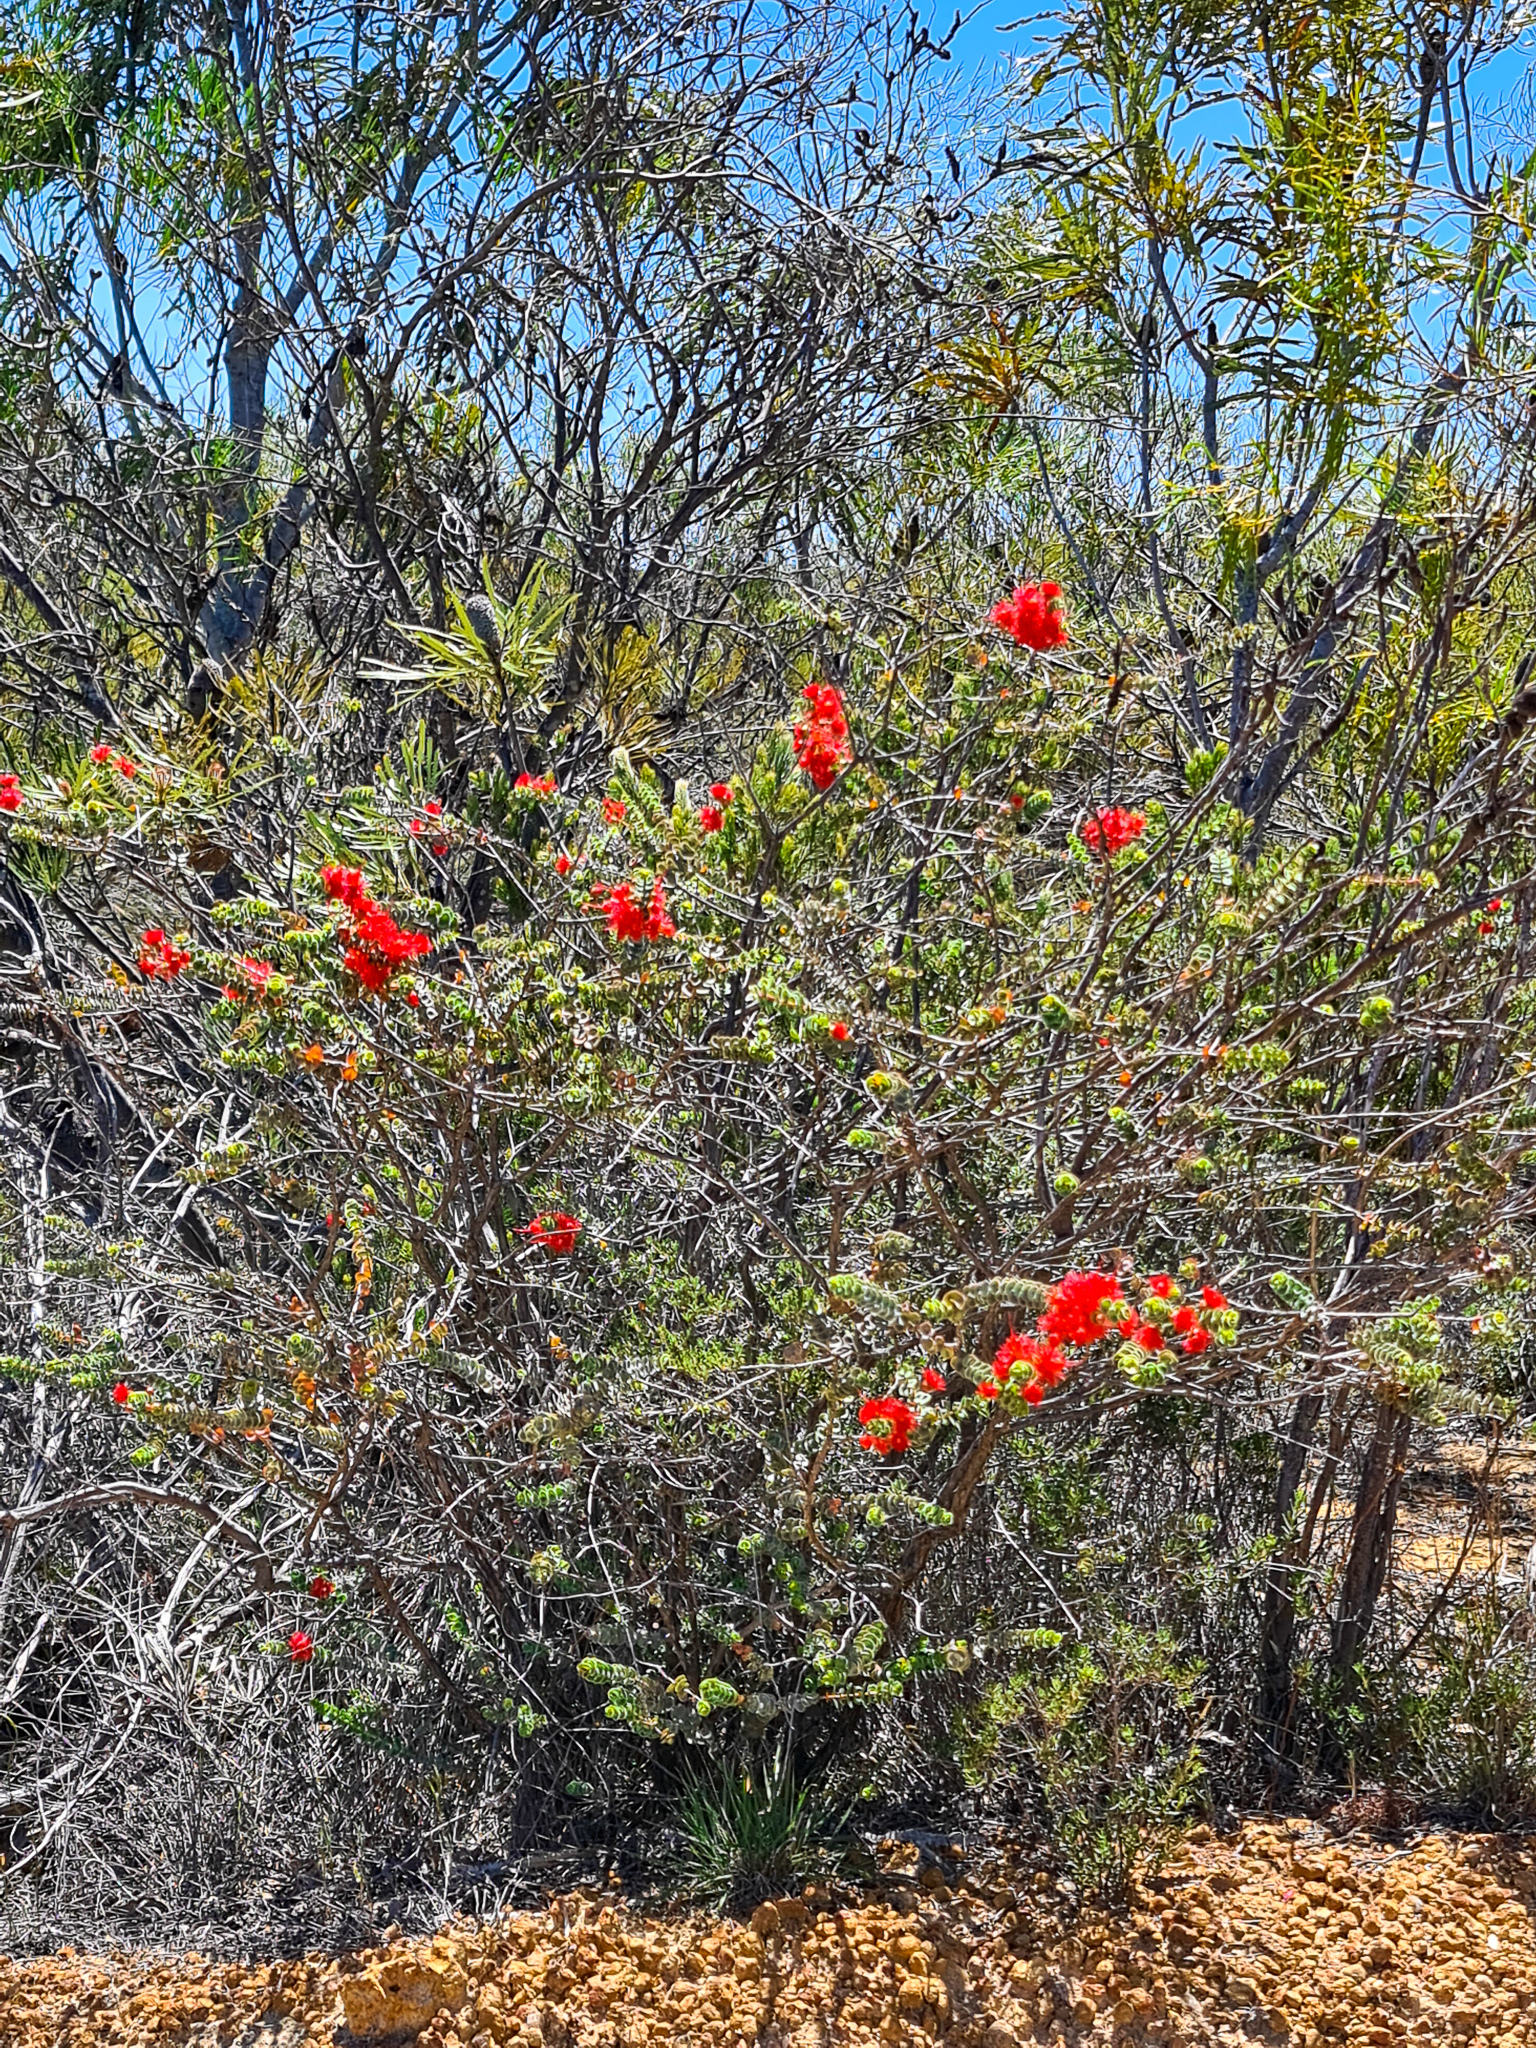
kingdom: Plantae
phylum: Tracheophyta
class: Magnoliopsida
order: Myrtales
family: Myrtaceae
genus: Verticordia
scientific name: Verticordia grandis
